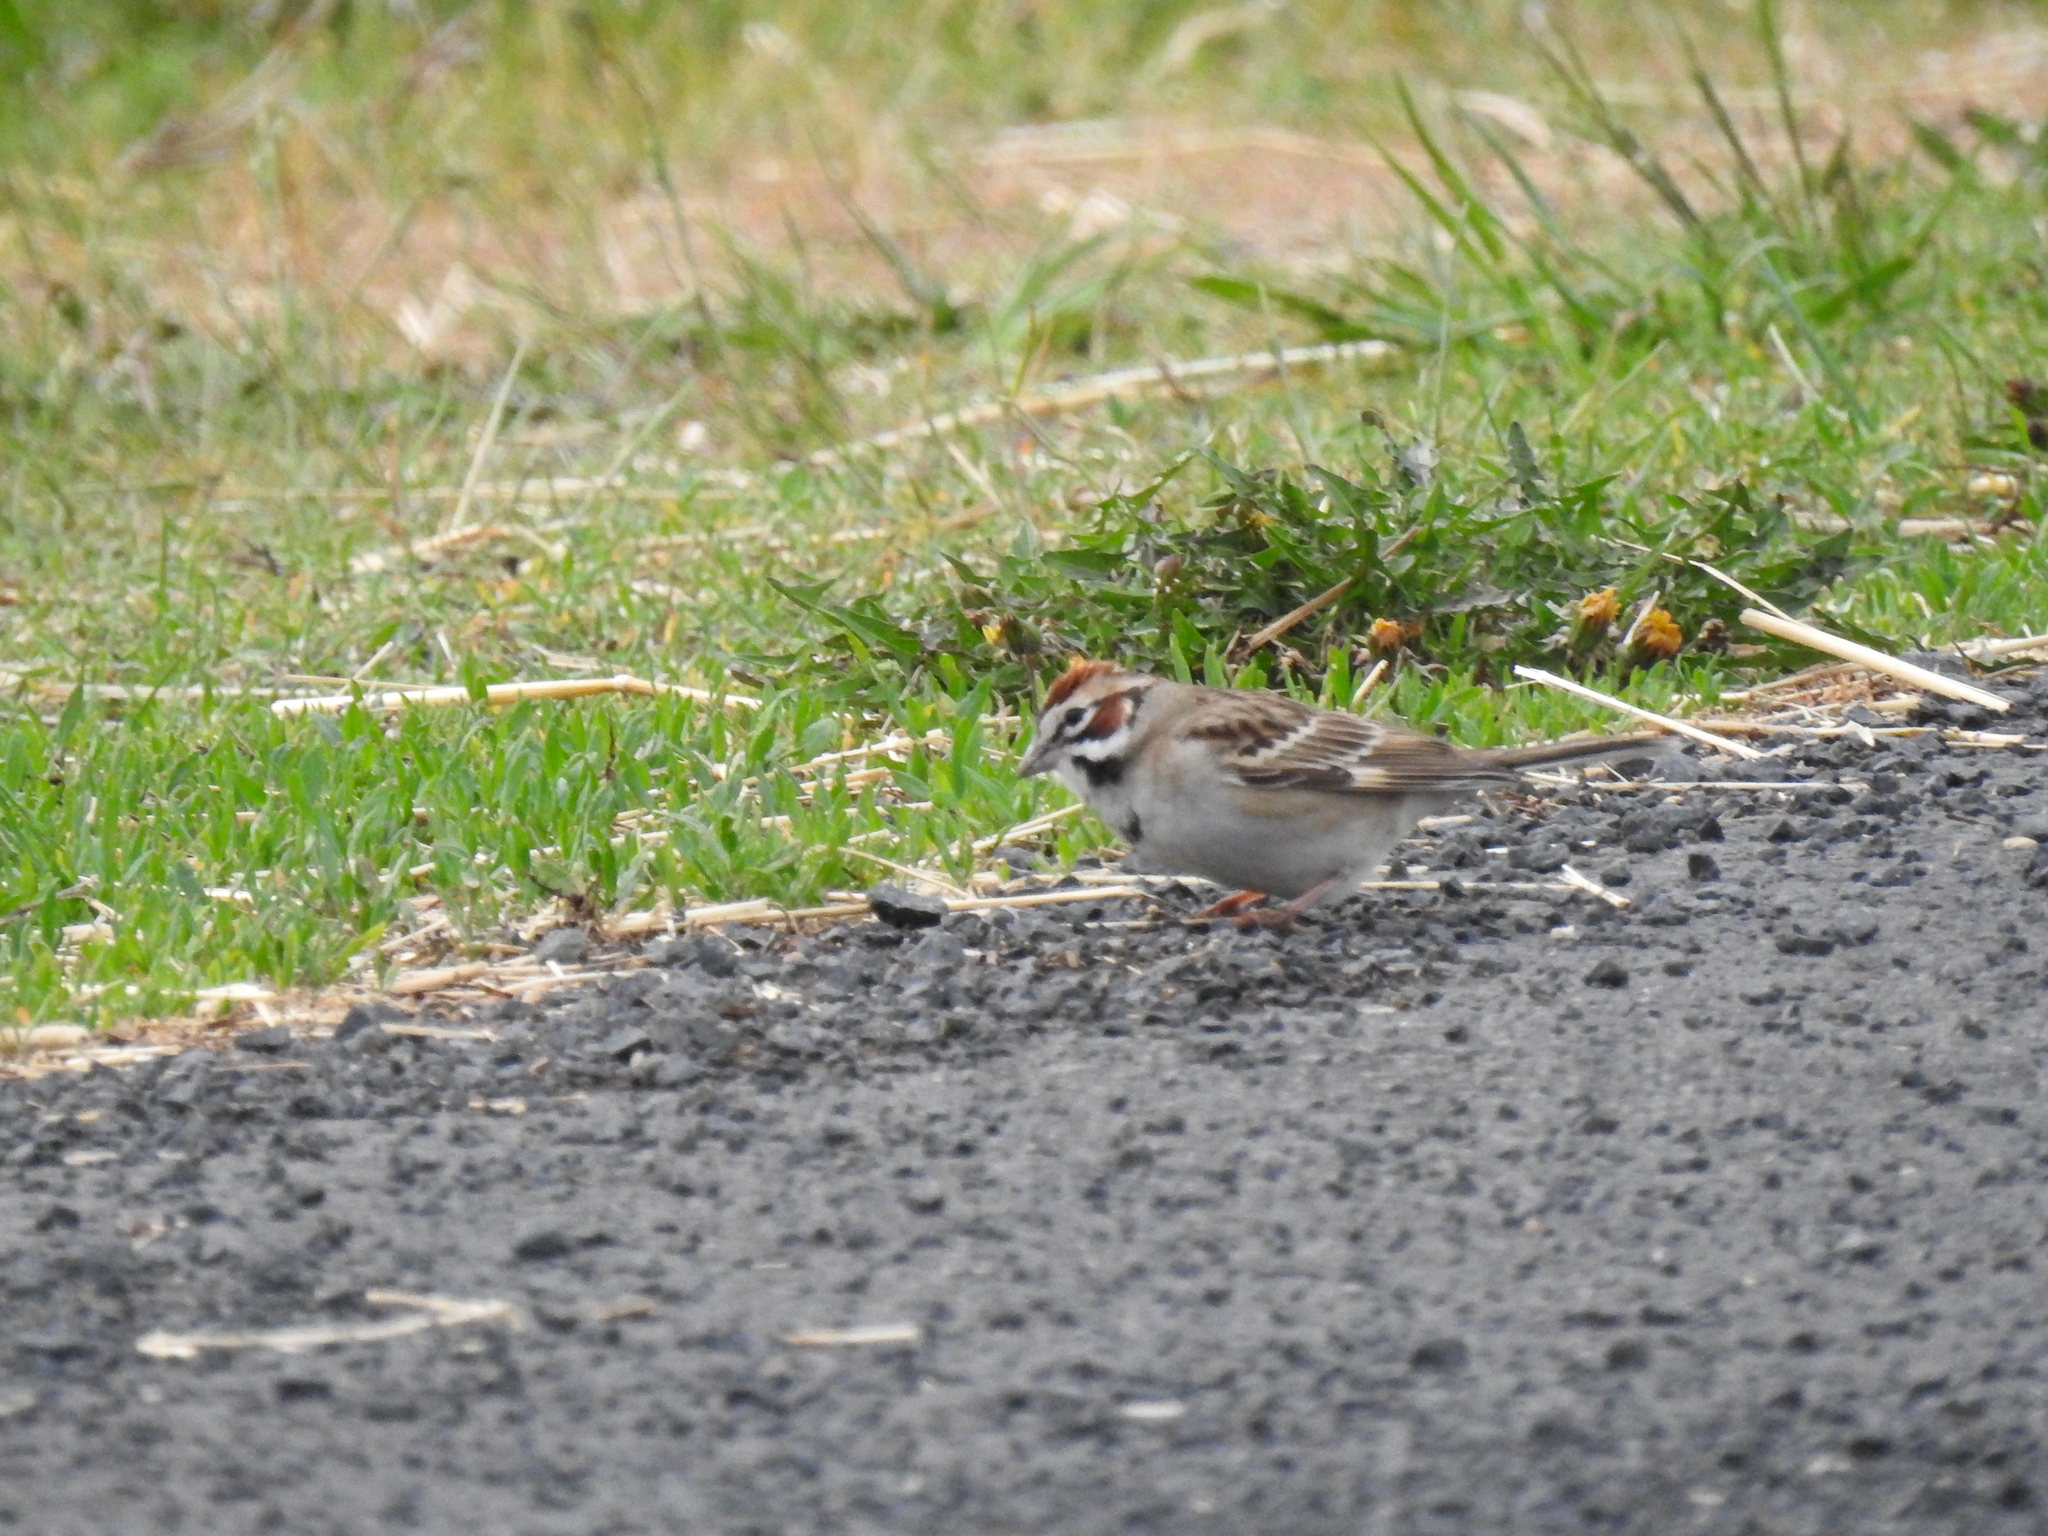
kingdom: Animalia
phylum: Chordata
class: Aves
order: Passeriformes
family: Passerellidae
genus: Chondestes
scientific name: Chondestes grammacus
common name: Lark sparrow
